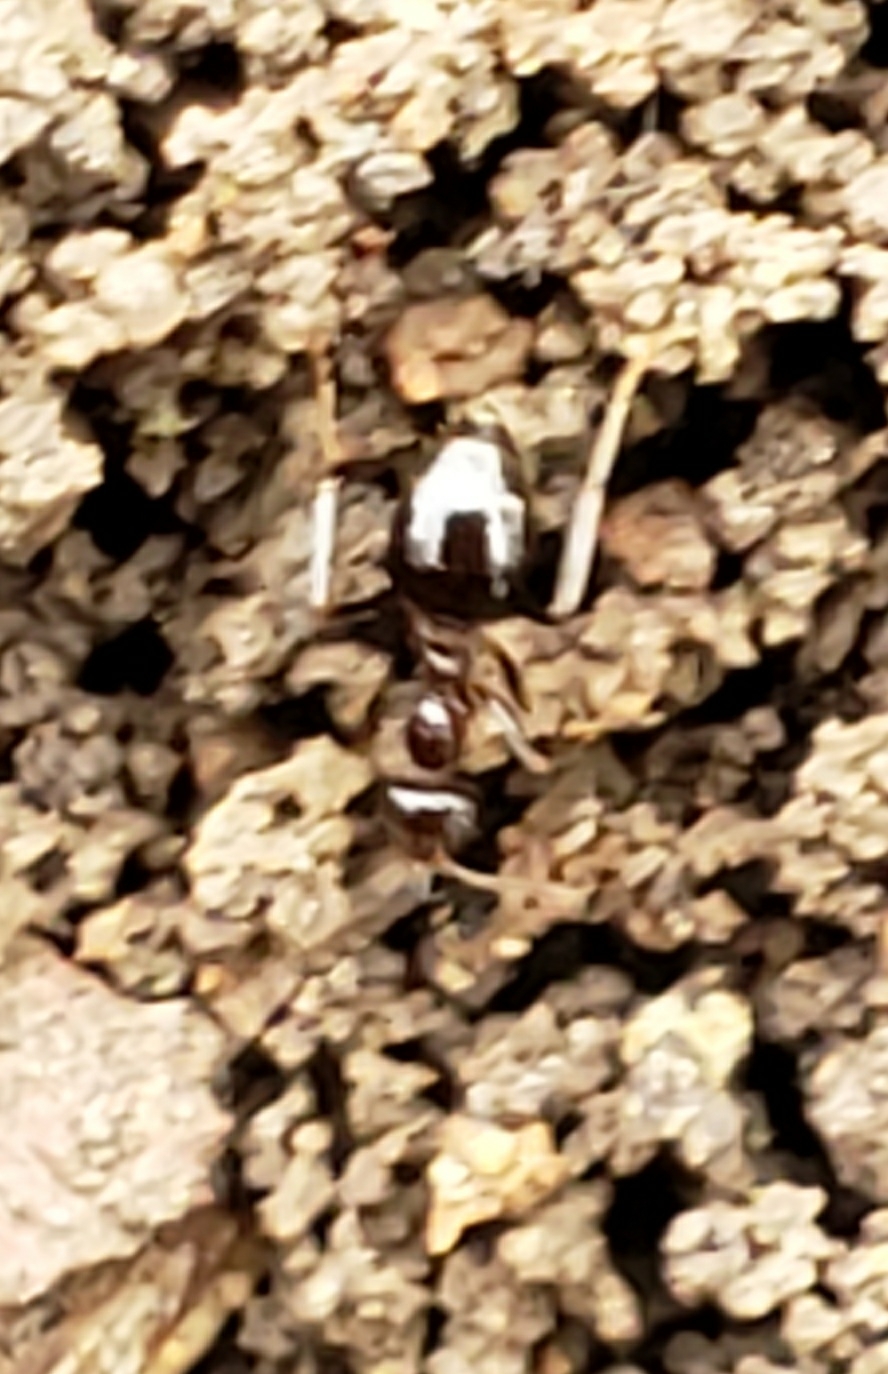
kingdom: Animalia
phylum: Arthropoda
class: Insecta
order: Hymenoptera
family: Formicidae
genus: Prenolepis
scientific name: Prenolepis imparis
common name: Small honey ant
